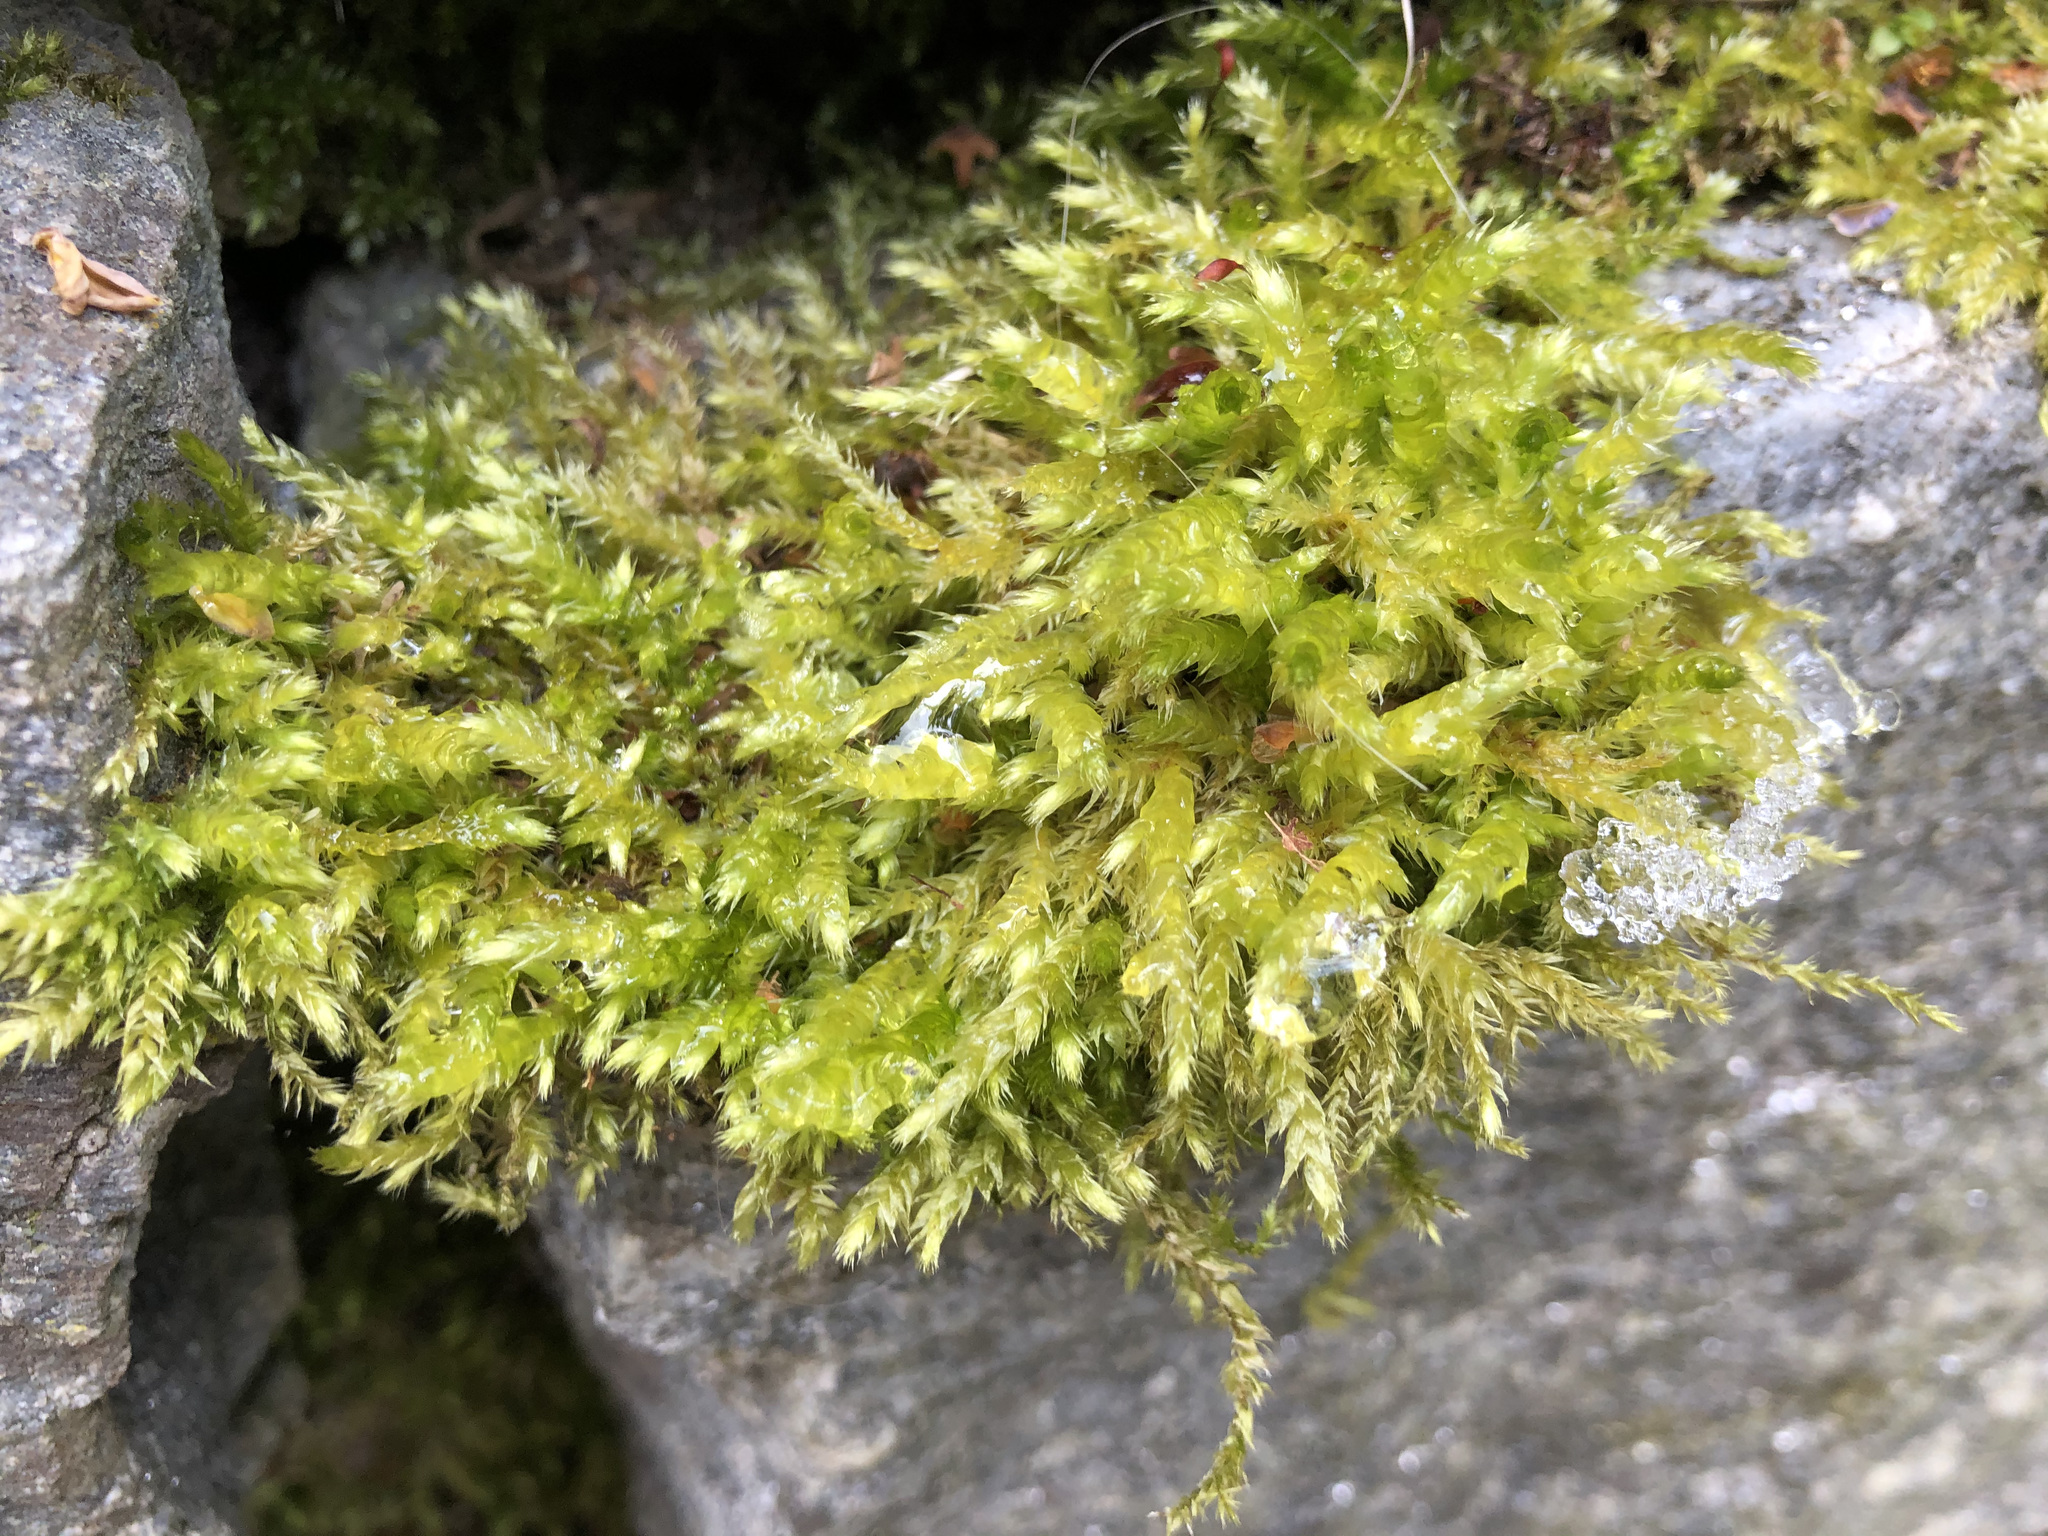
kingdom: Plantae
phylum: Bryophyta
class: Bryopsida
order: Hypnales
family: Brachytheciaceae
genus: Brachythecium
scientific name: Brachythecium rutabulum
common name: Rough-stalked feather-moss
